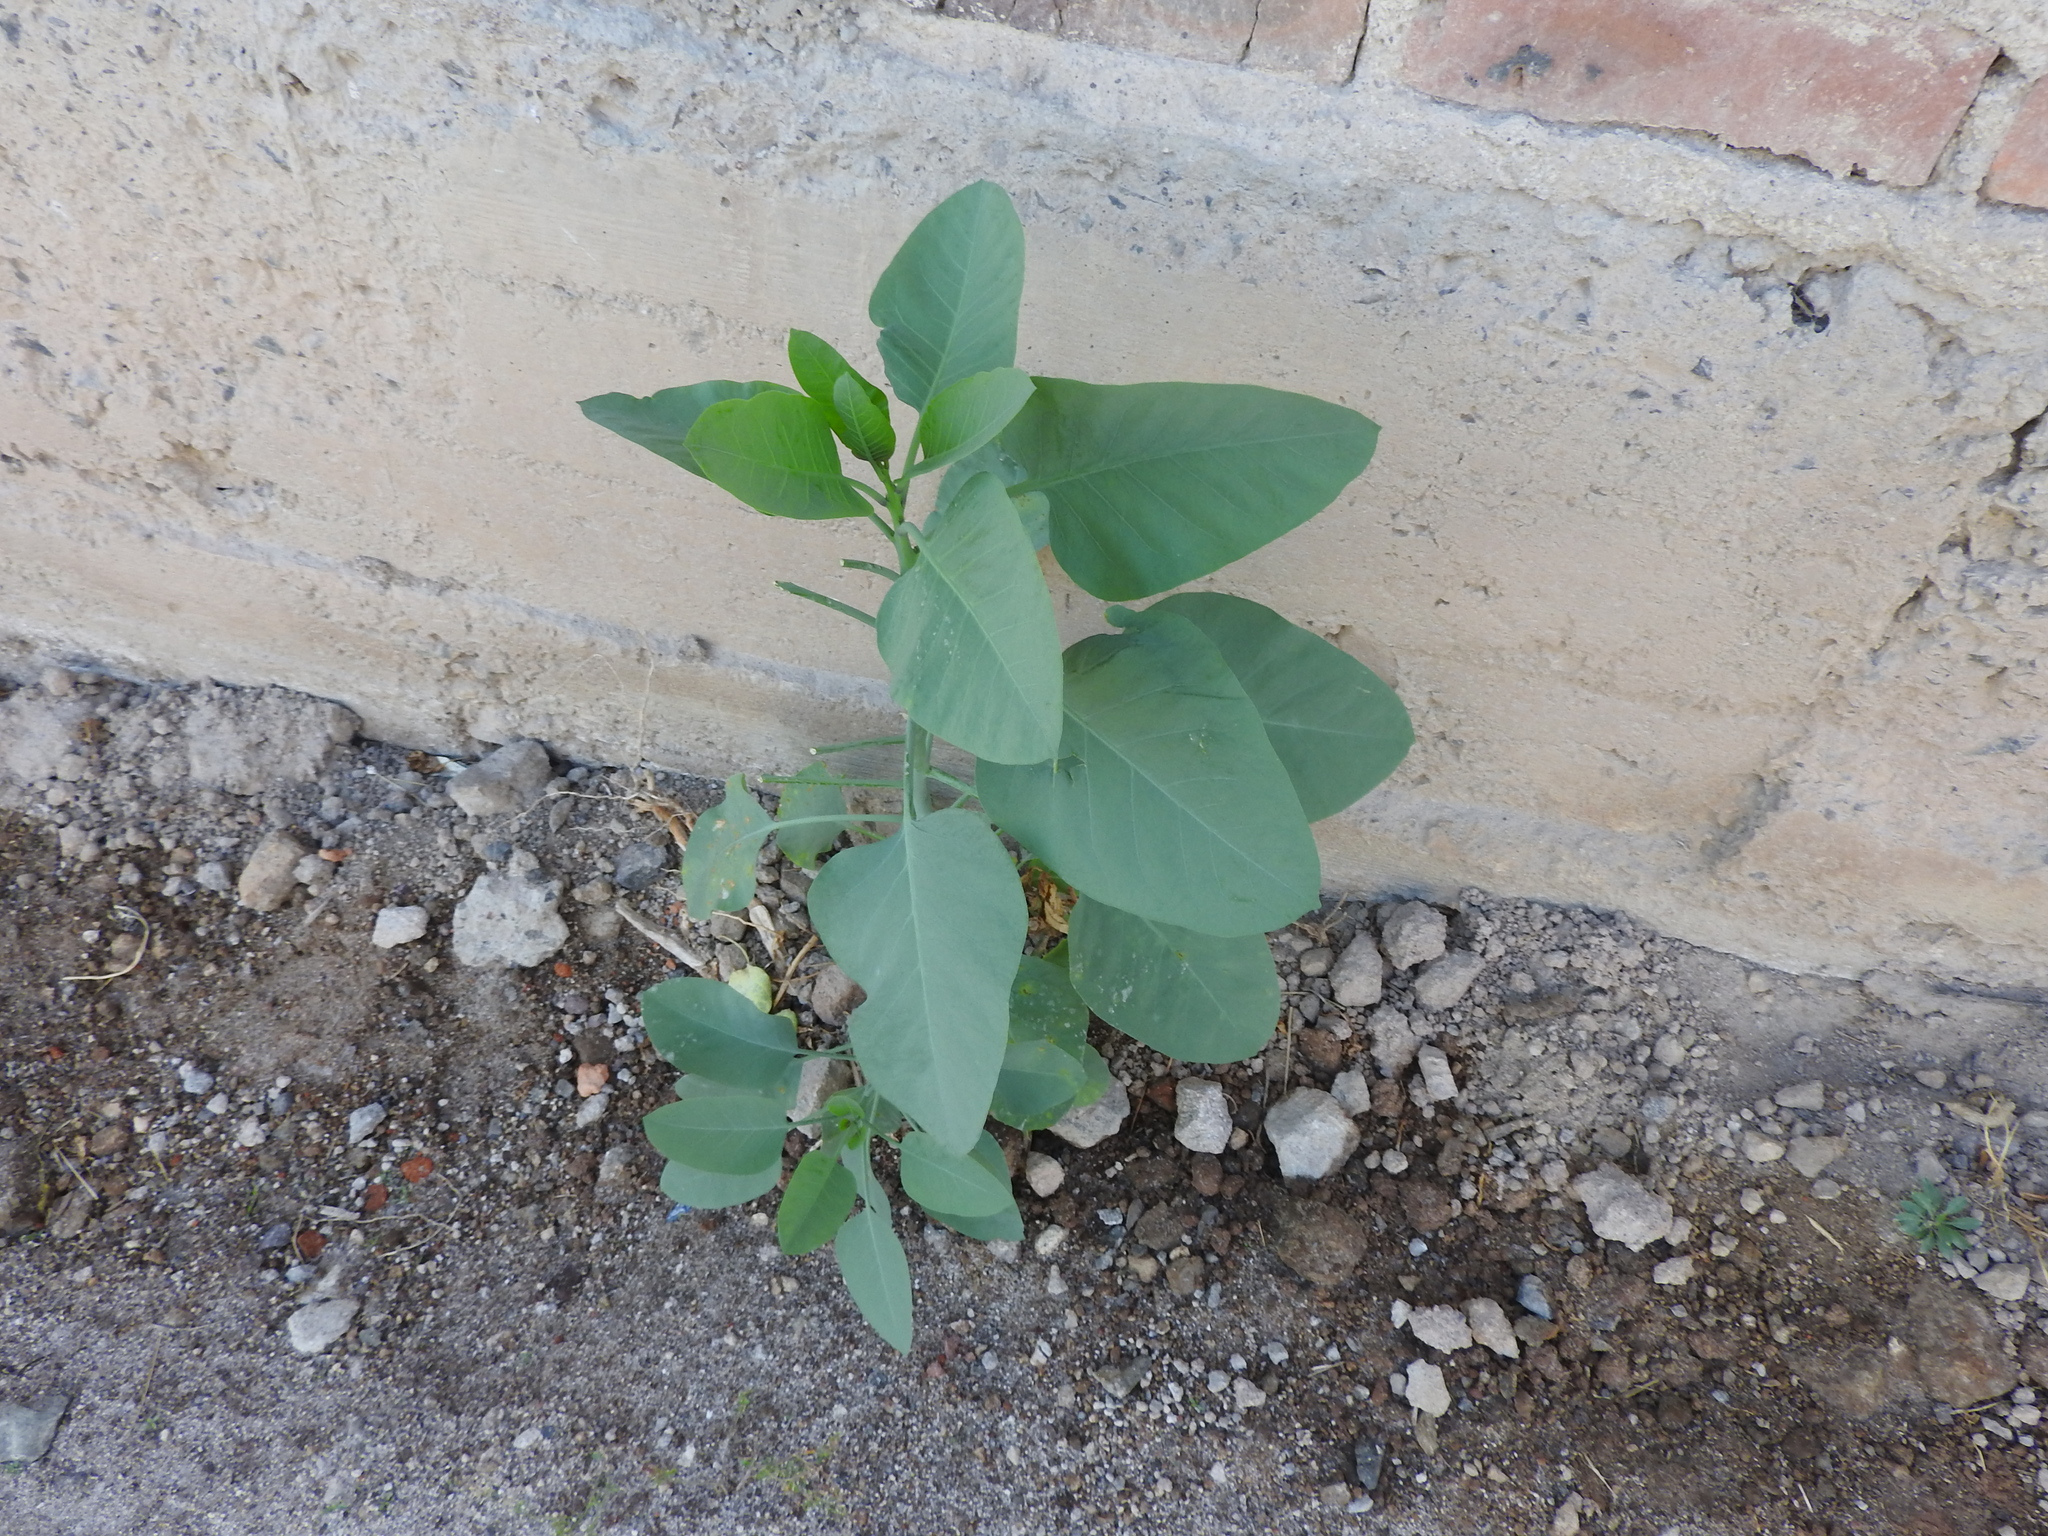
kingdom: Plantae
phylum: Tracheophyta
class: Magnoliopsida
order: Solanales
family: Solanaceae
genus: Nicotiana
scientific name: Nicotiana glauca
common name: Tree tobacco
